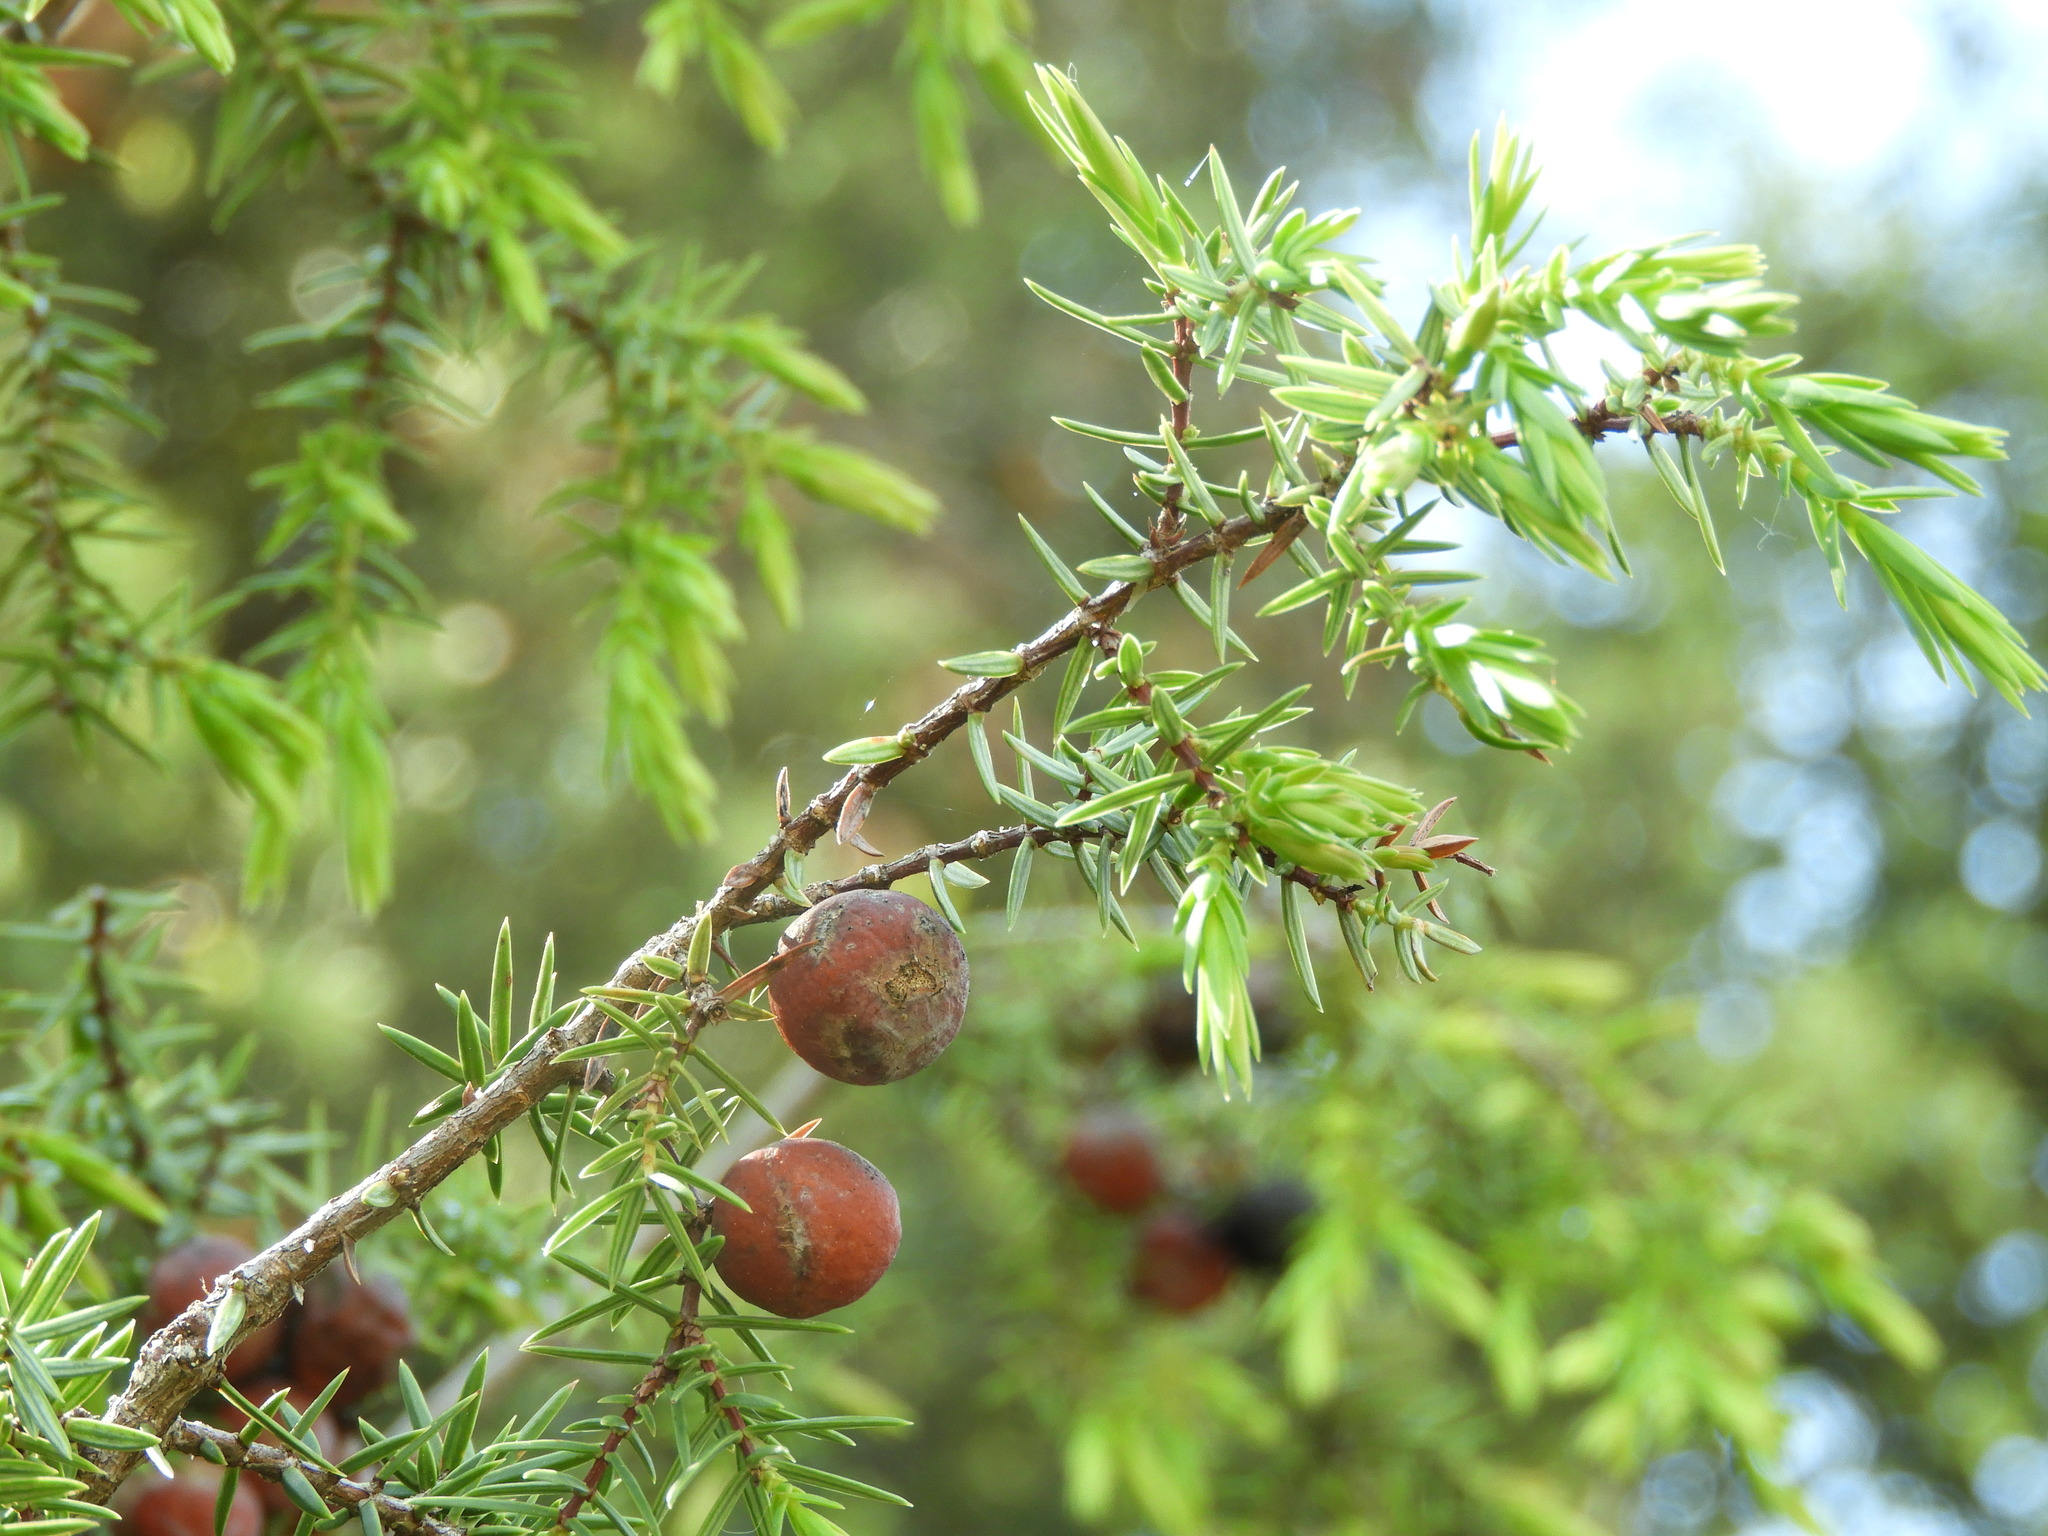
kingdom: Plantae
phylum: Tracheophyta
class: Pinopsida
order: Pinales
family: Cupressaceae
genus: Juniperus
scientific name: Juniperus oxycedrus
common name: Prickly juniper
